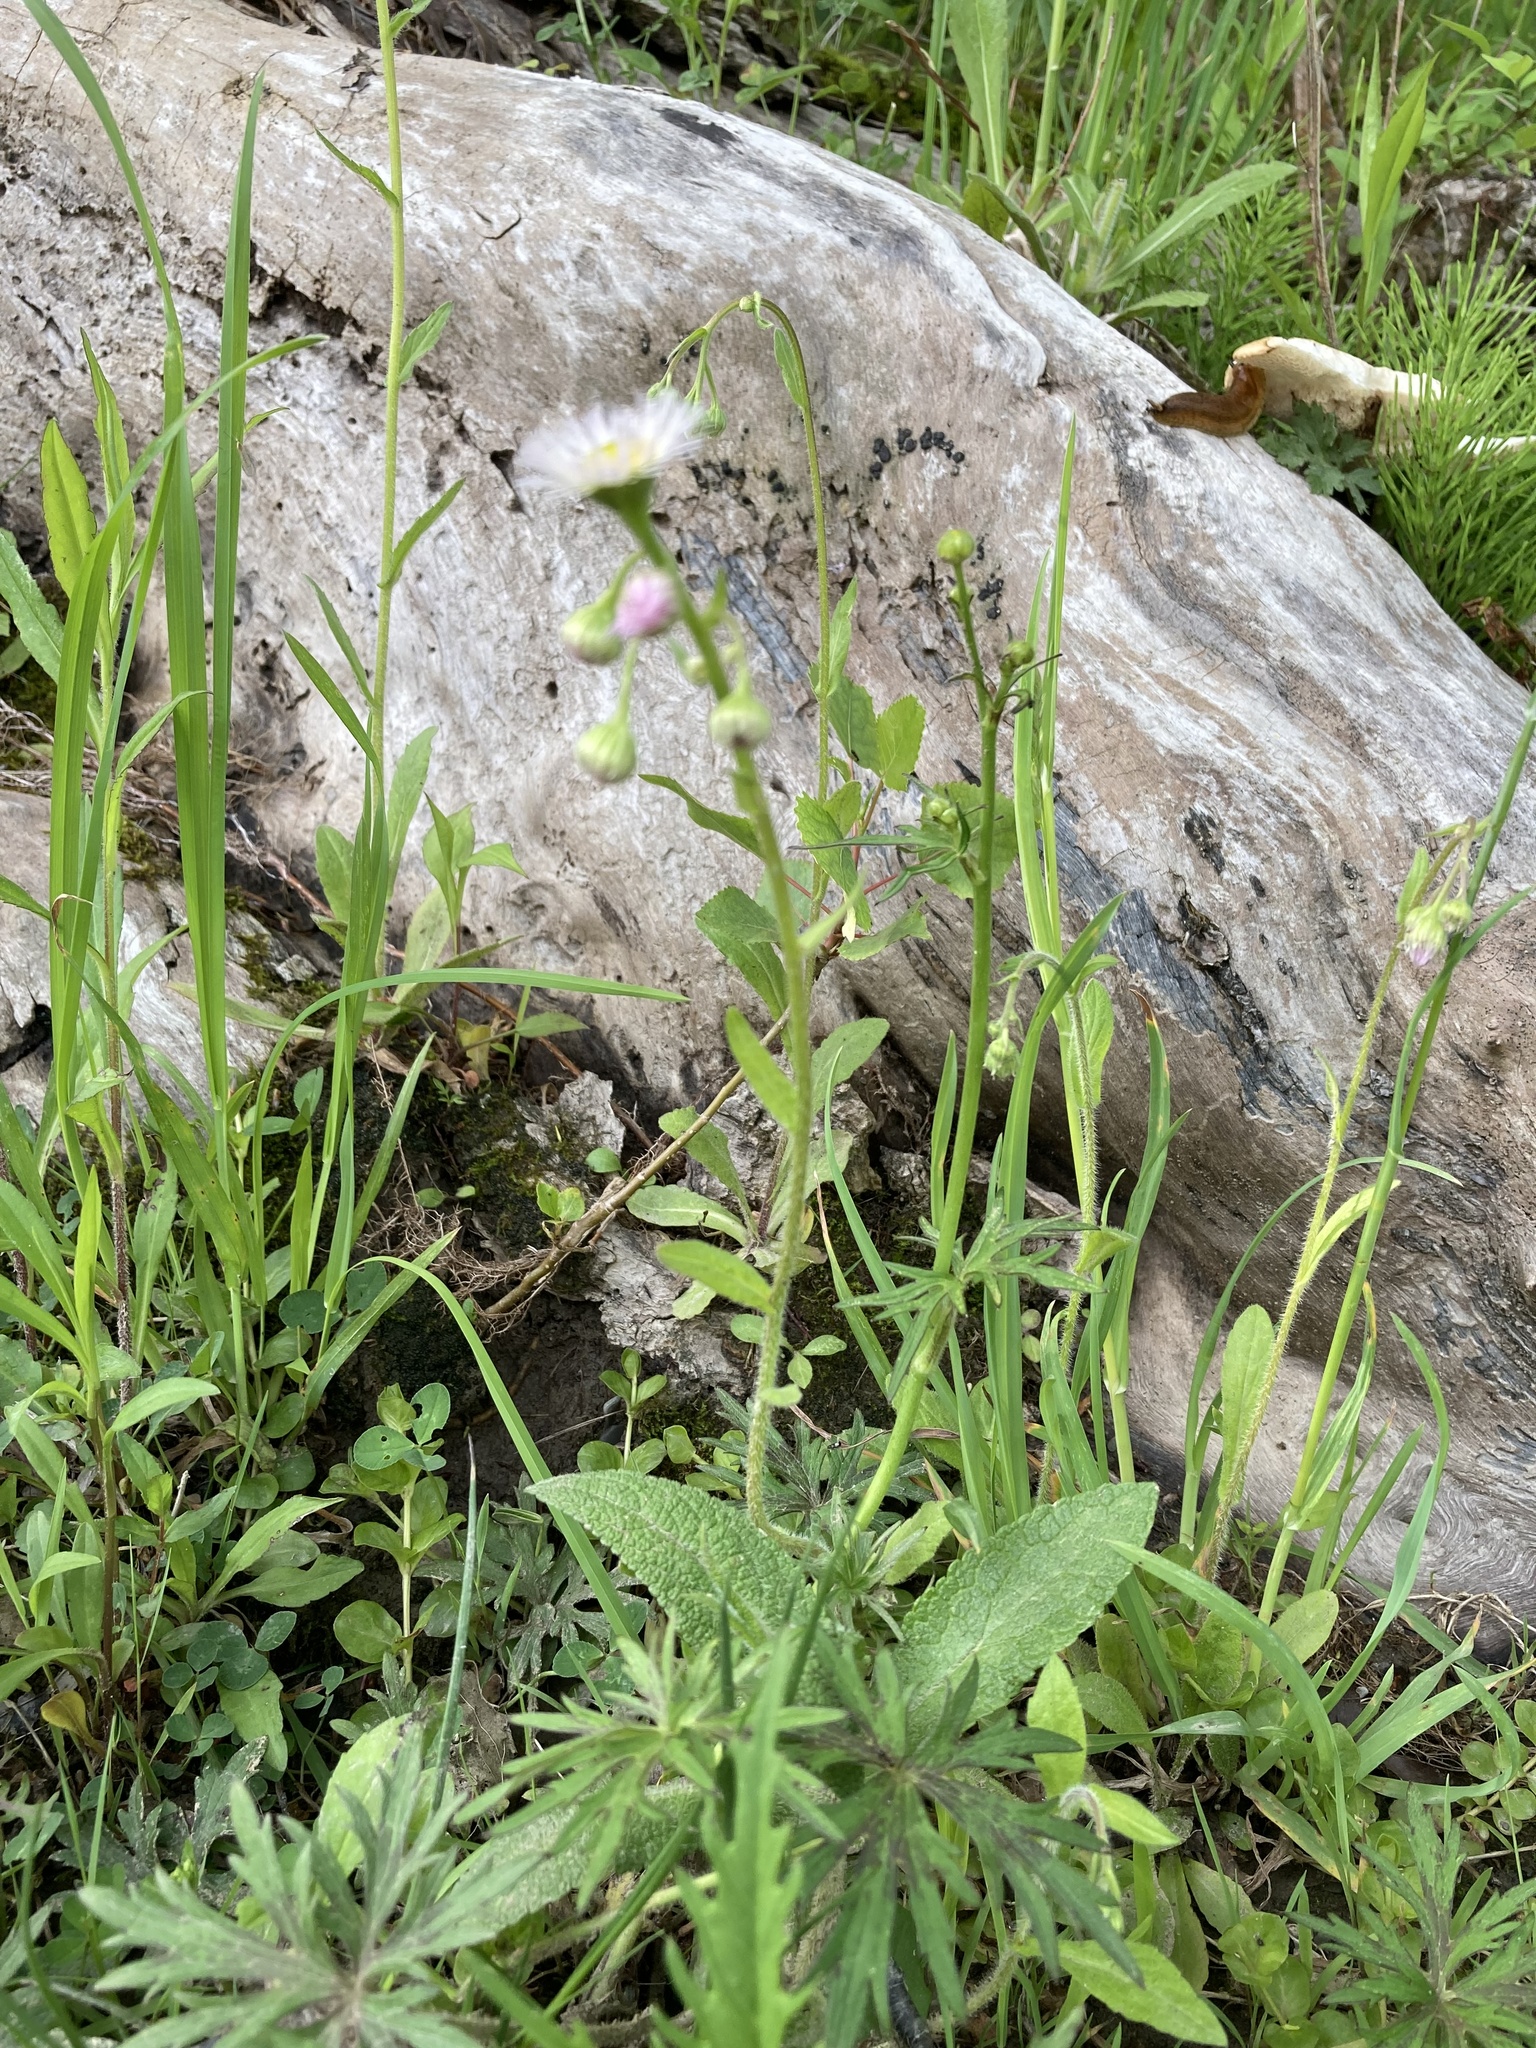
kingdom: Plantae
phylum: Tracheophyta
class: Magnoliopsida
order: Asterales
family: Asteraceae
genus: Erigeron
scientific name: Erigeron philadelphicus
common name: Robin's-plantain
